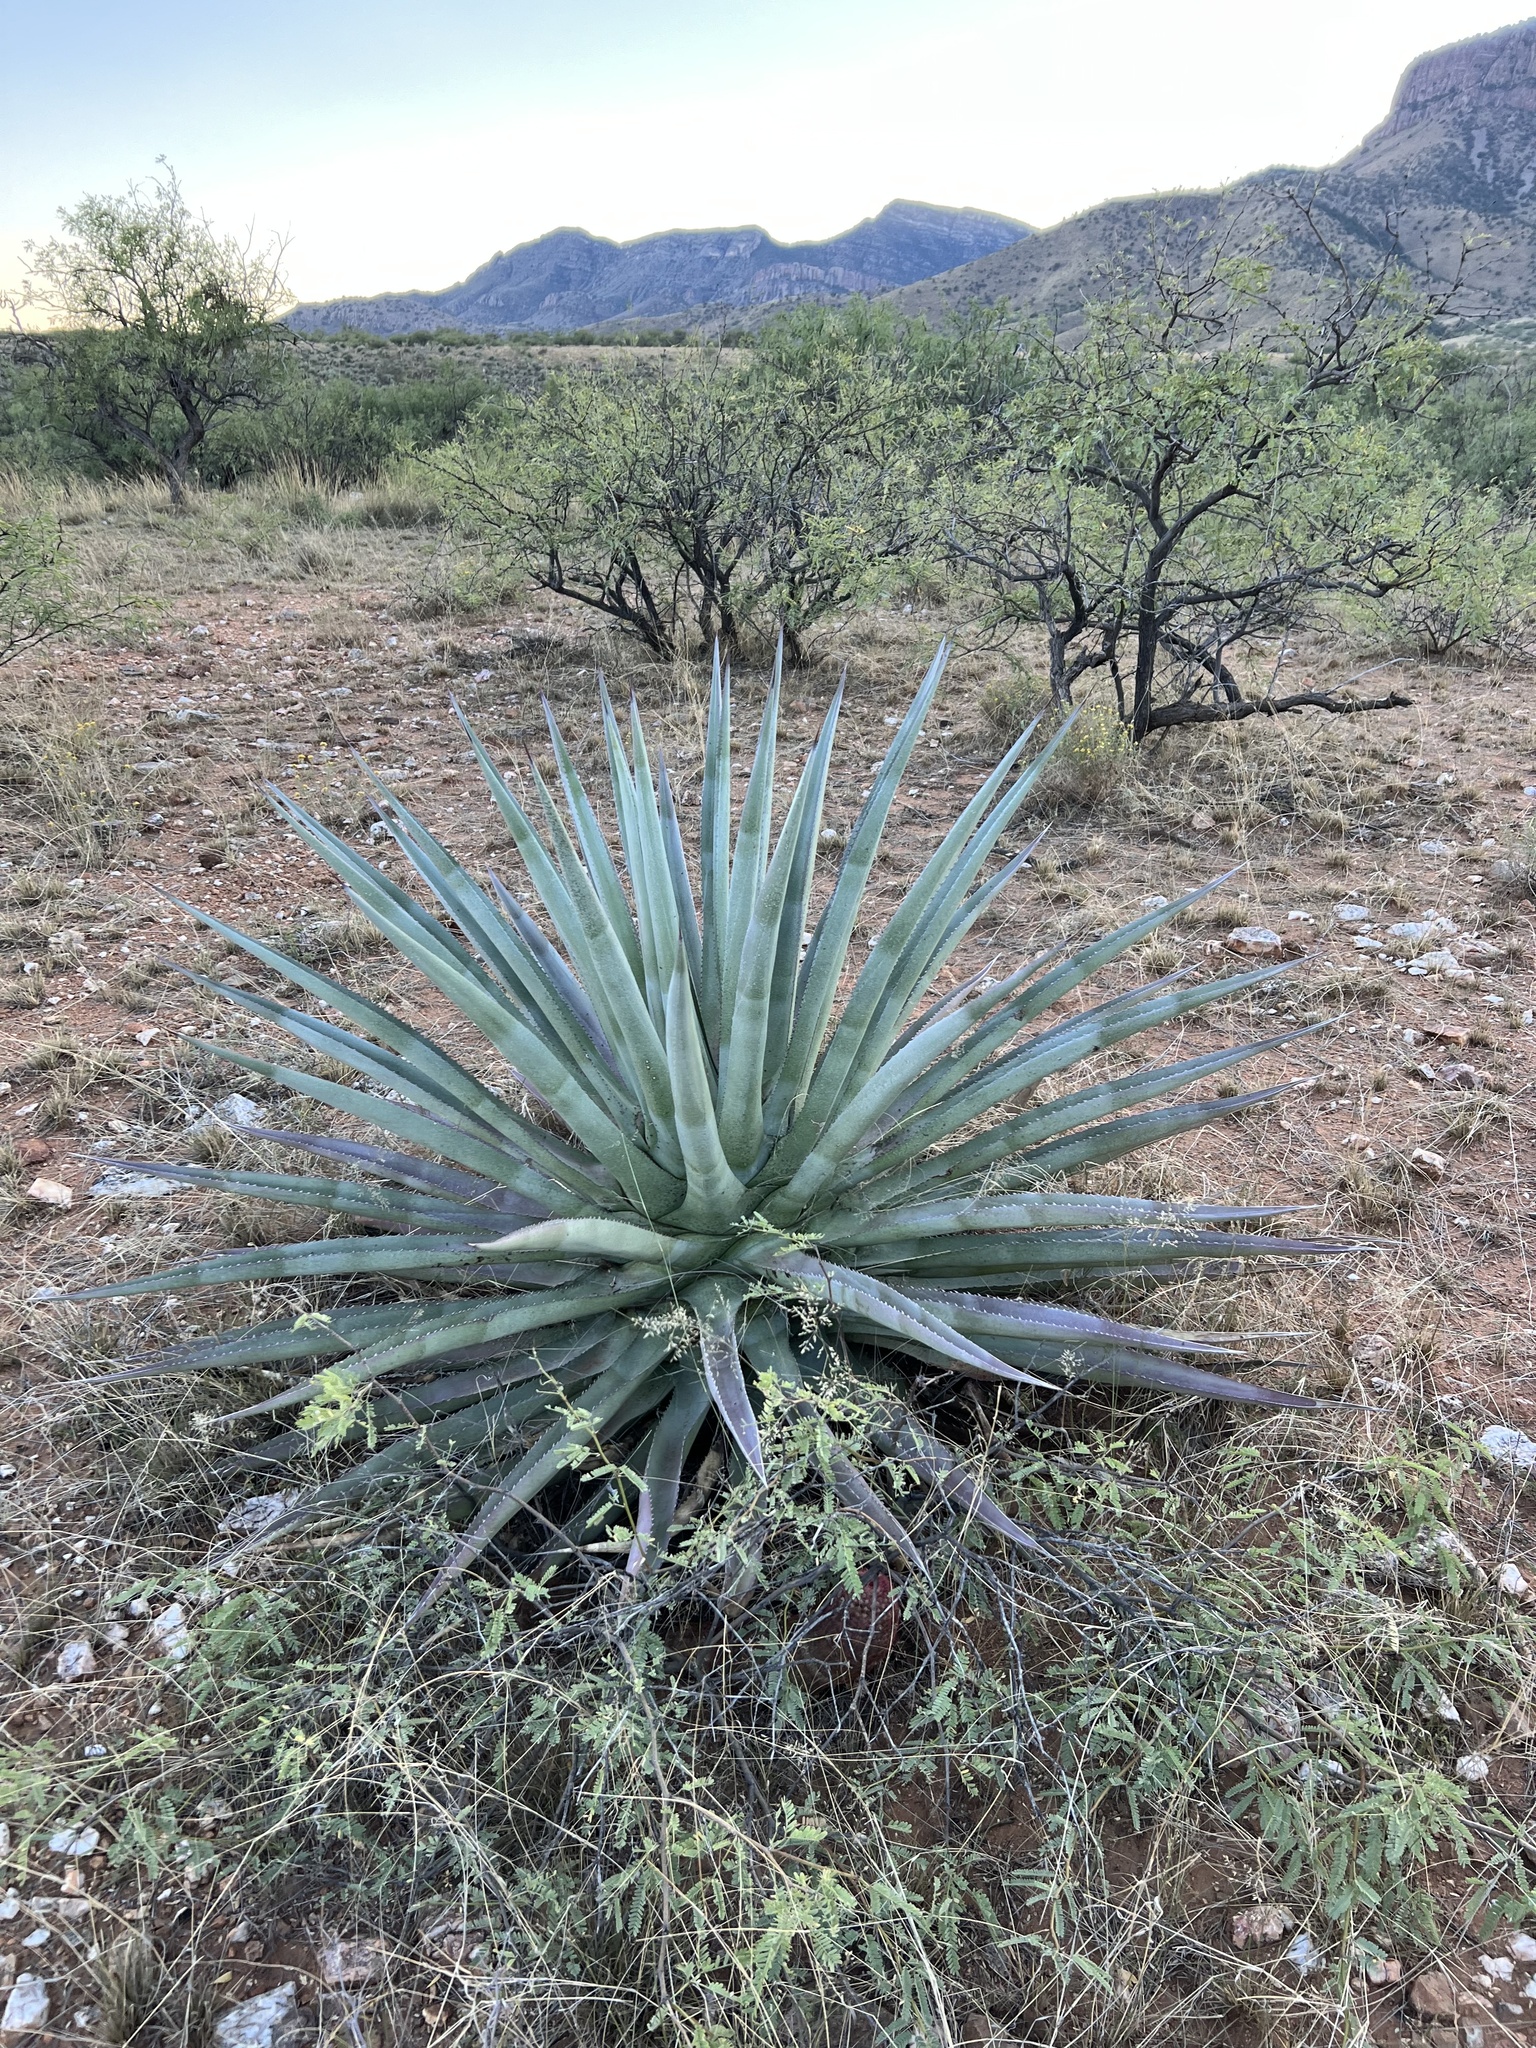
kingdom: Plantae
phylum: Tracheophyta
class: Liliopsida
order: Asparagales
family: Asparagaceae
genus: Agave
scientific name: Agave palmeri
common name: Palmer agave
